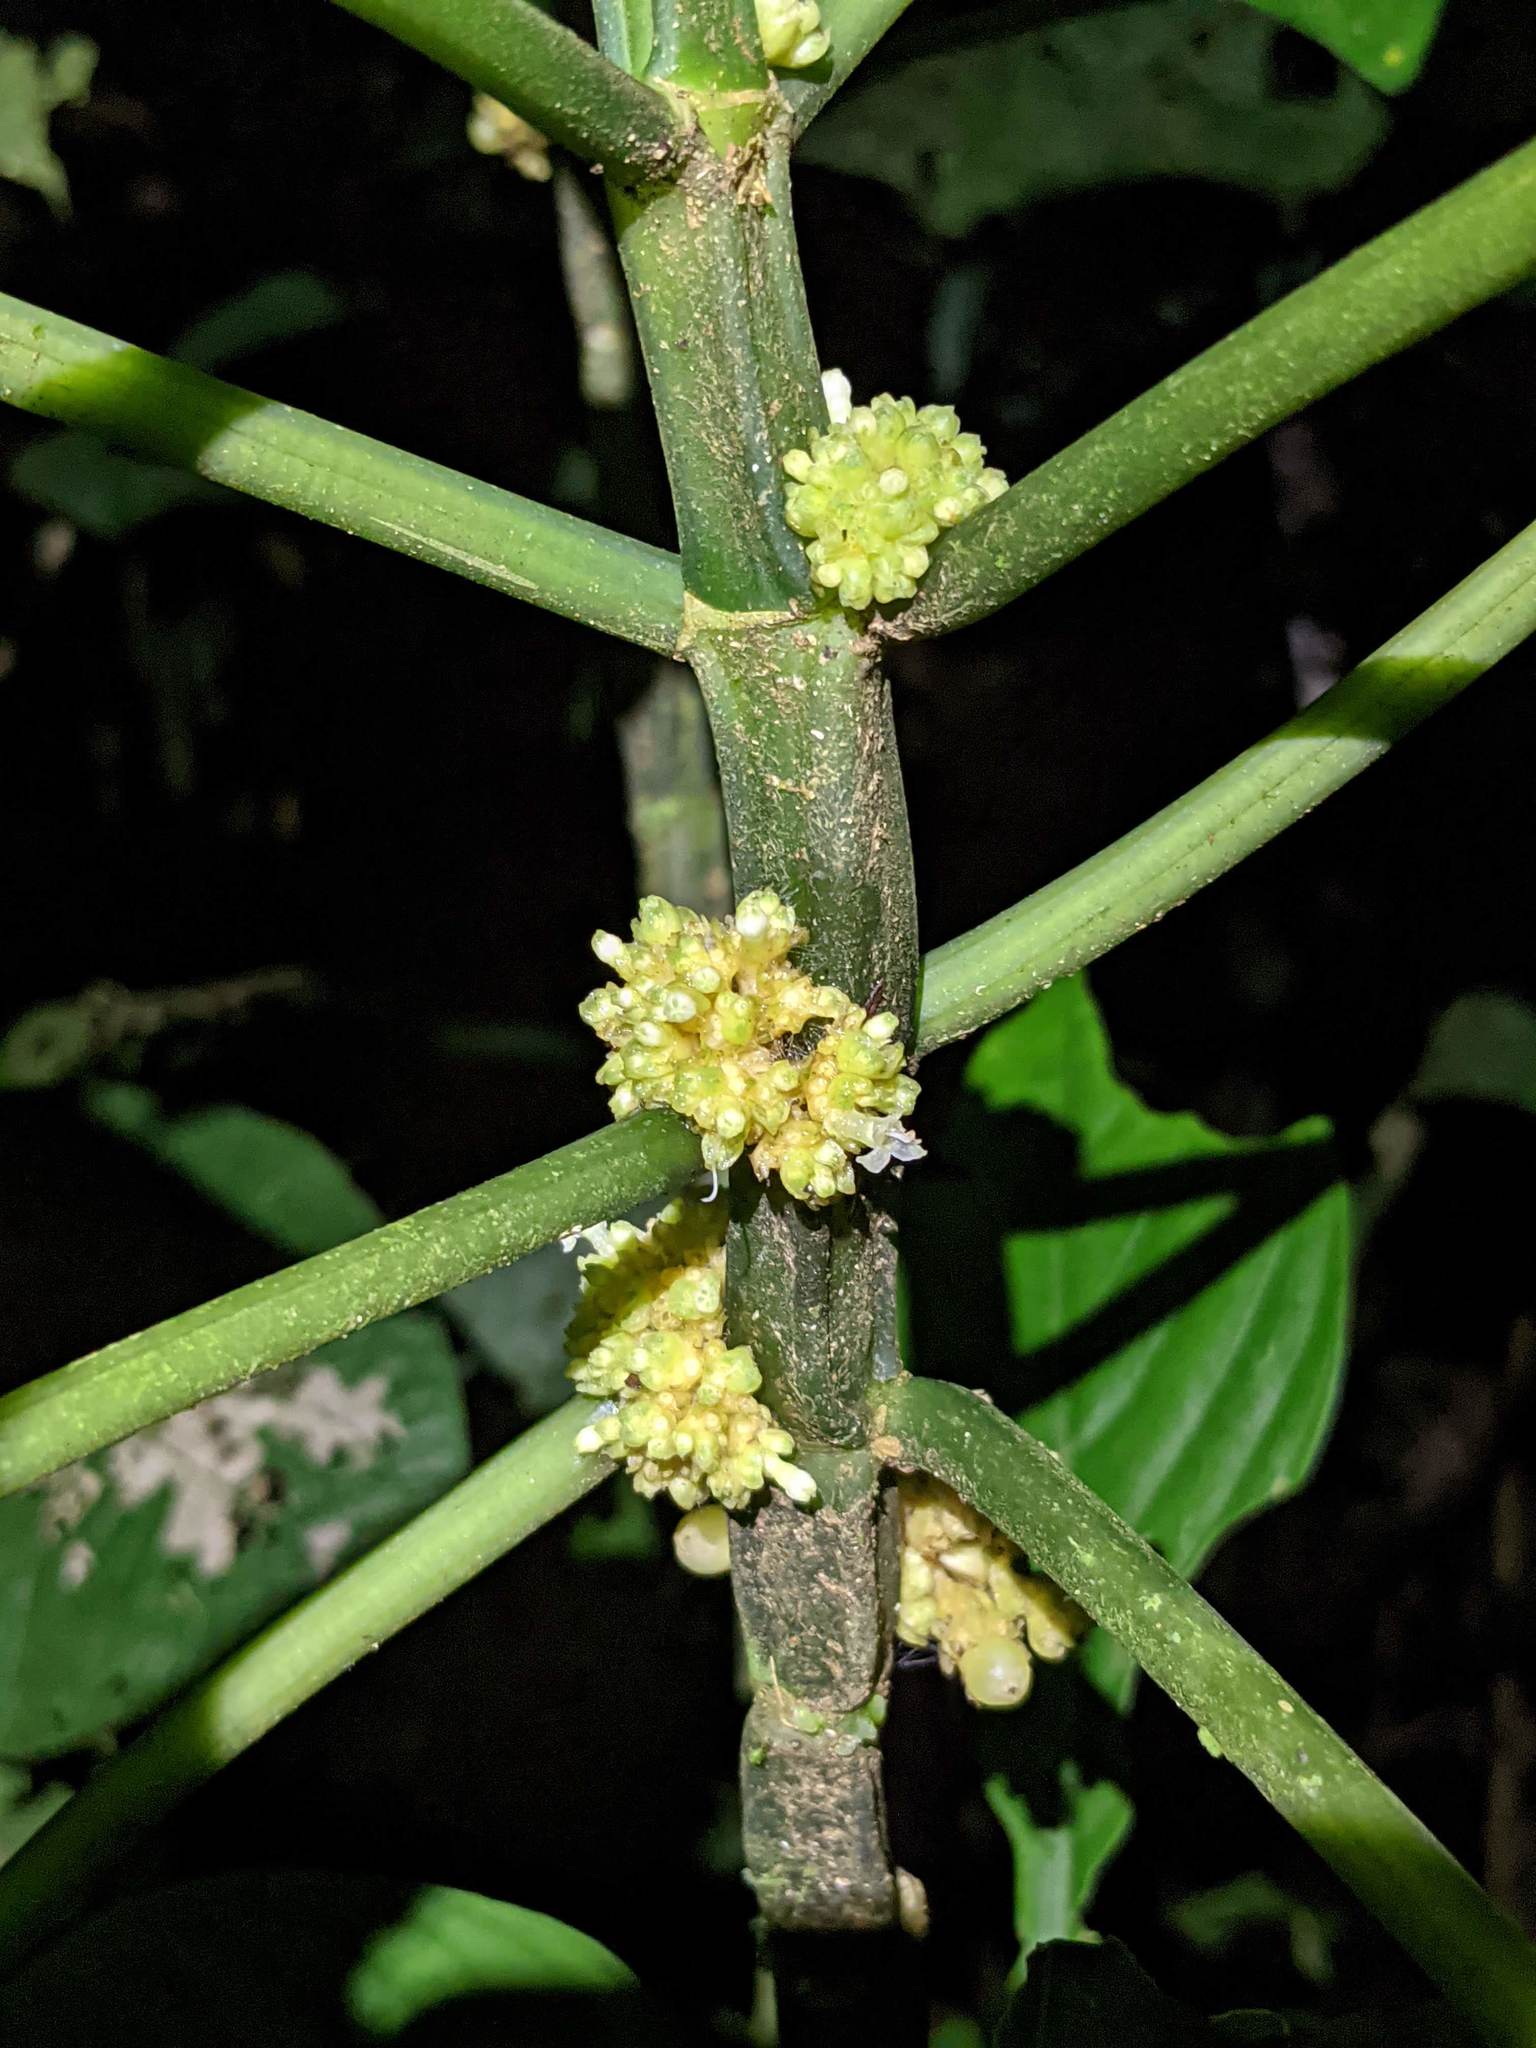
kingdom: Plantae
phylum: Tracheophyta
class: Magnoliopsida
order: Gentianales
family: Rubiaceae
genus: Notopleura
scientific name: Notopleura capitata
